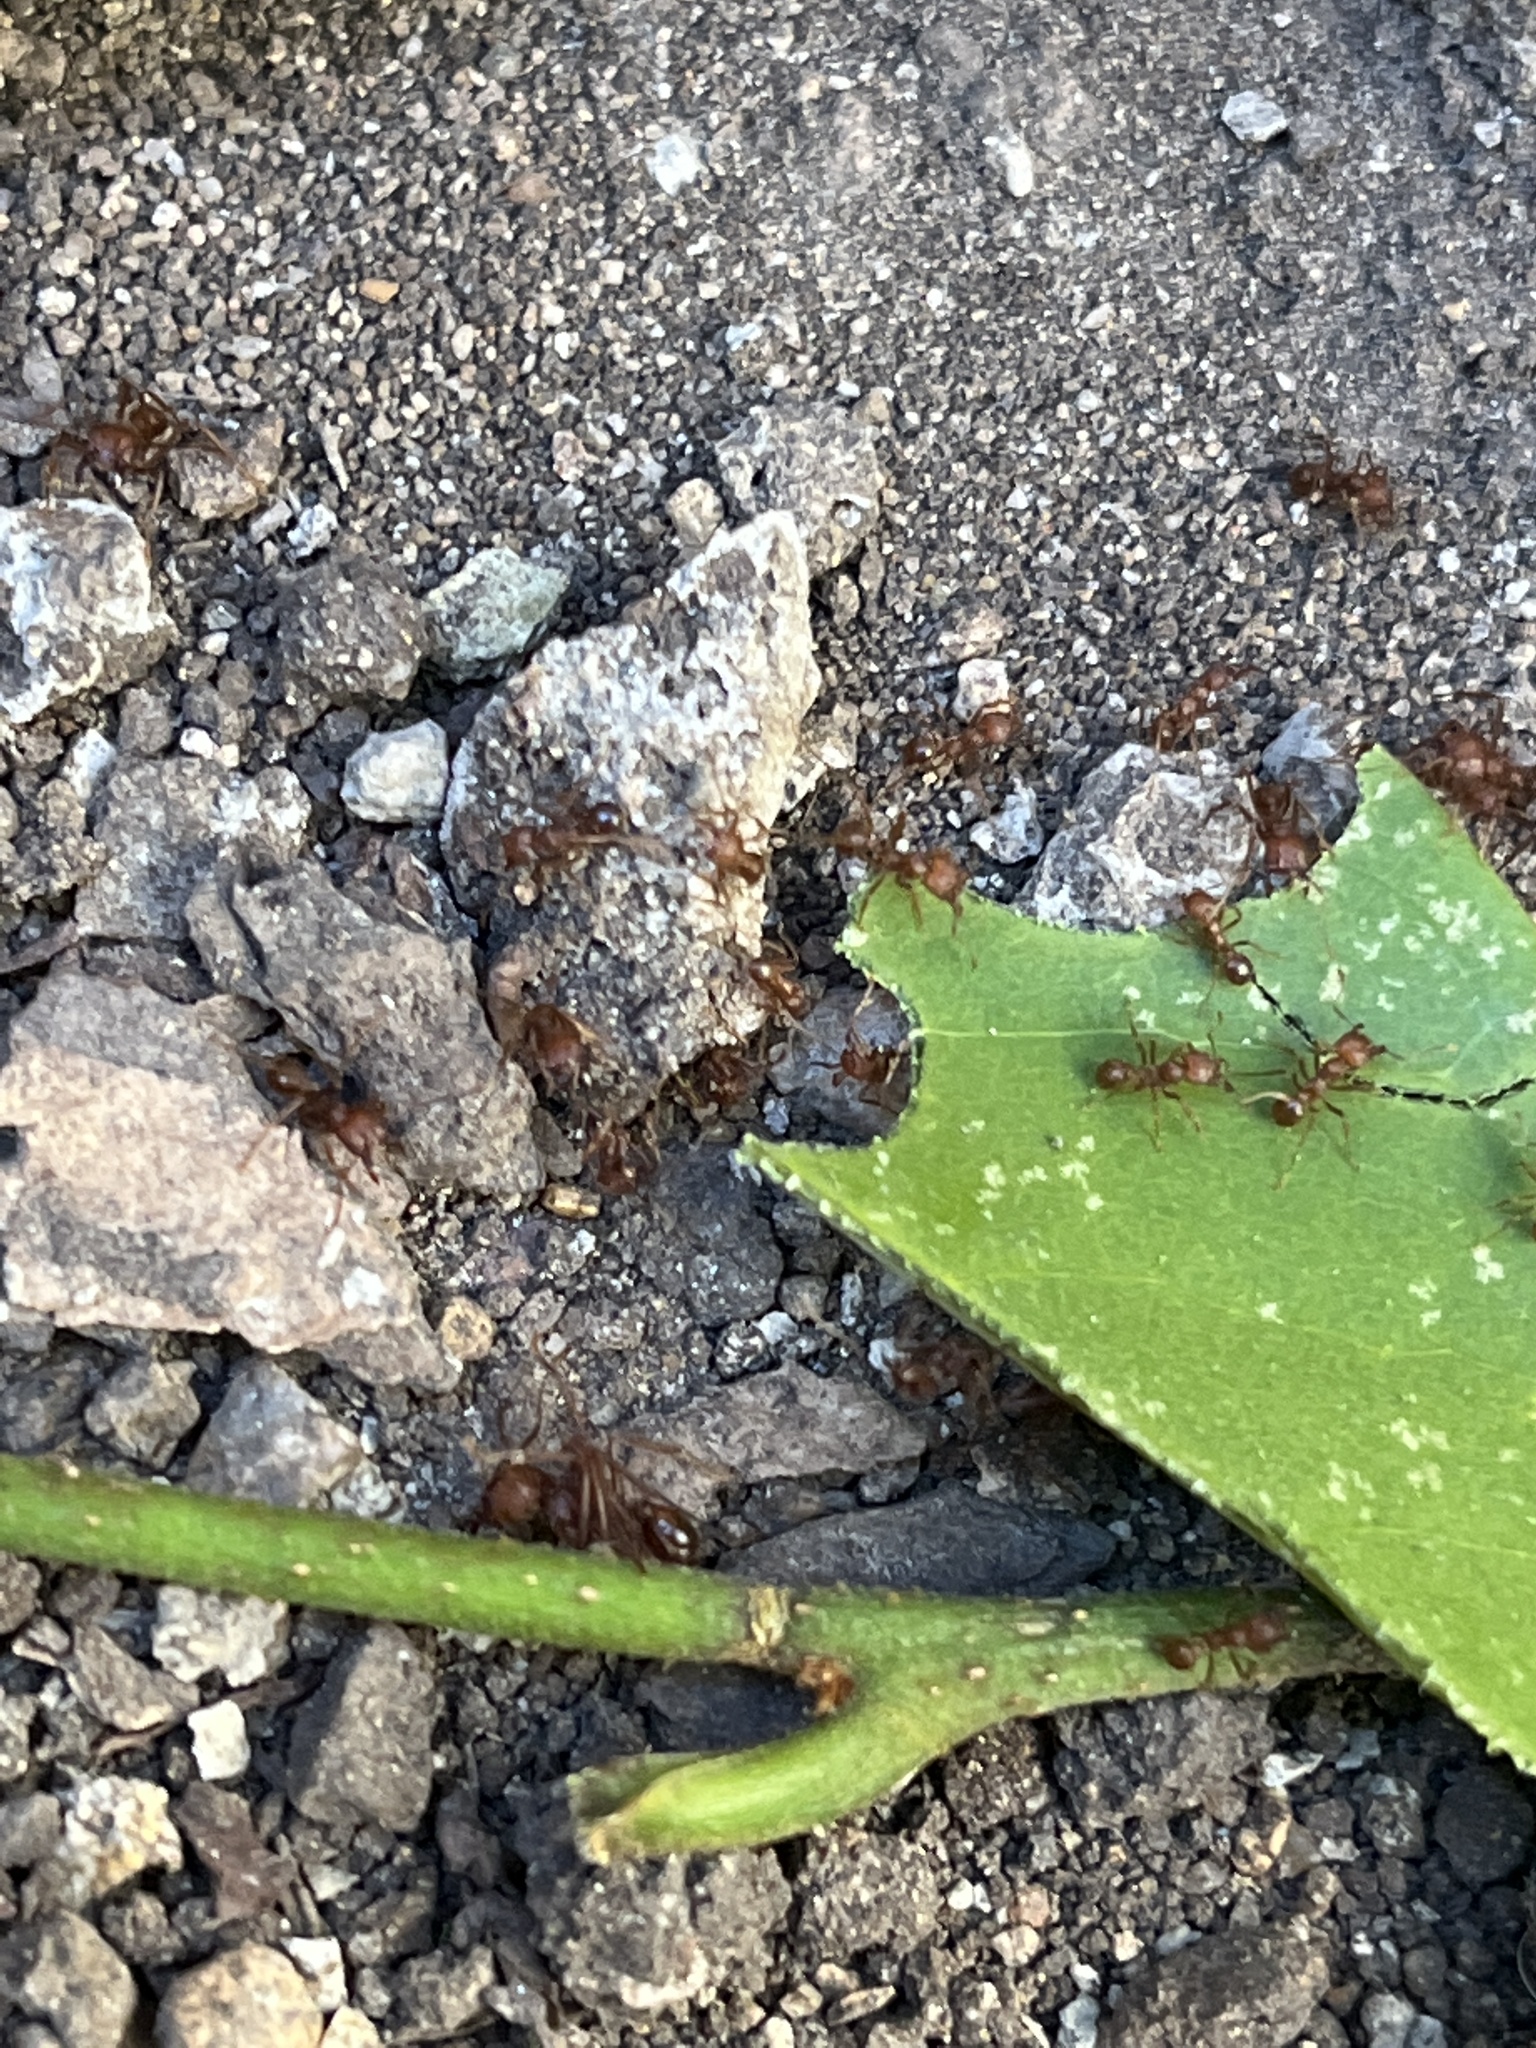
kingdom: Animalia
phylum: Arthropoda
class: Insecta
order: Hymenoptera
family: Formicidae
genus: Atta
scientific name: Atta mexicana
